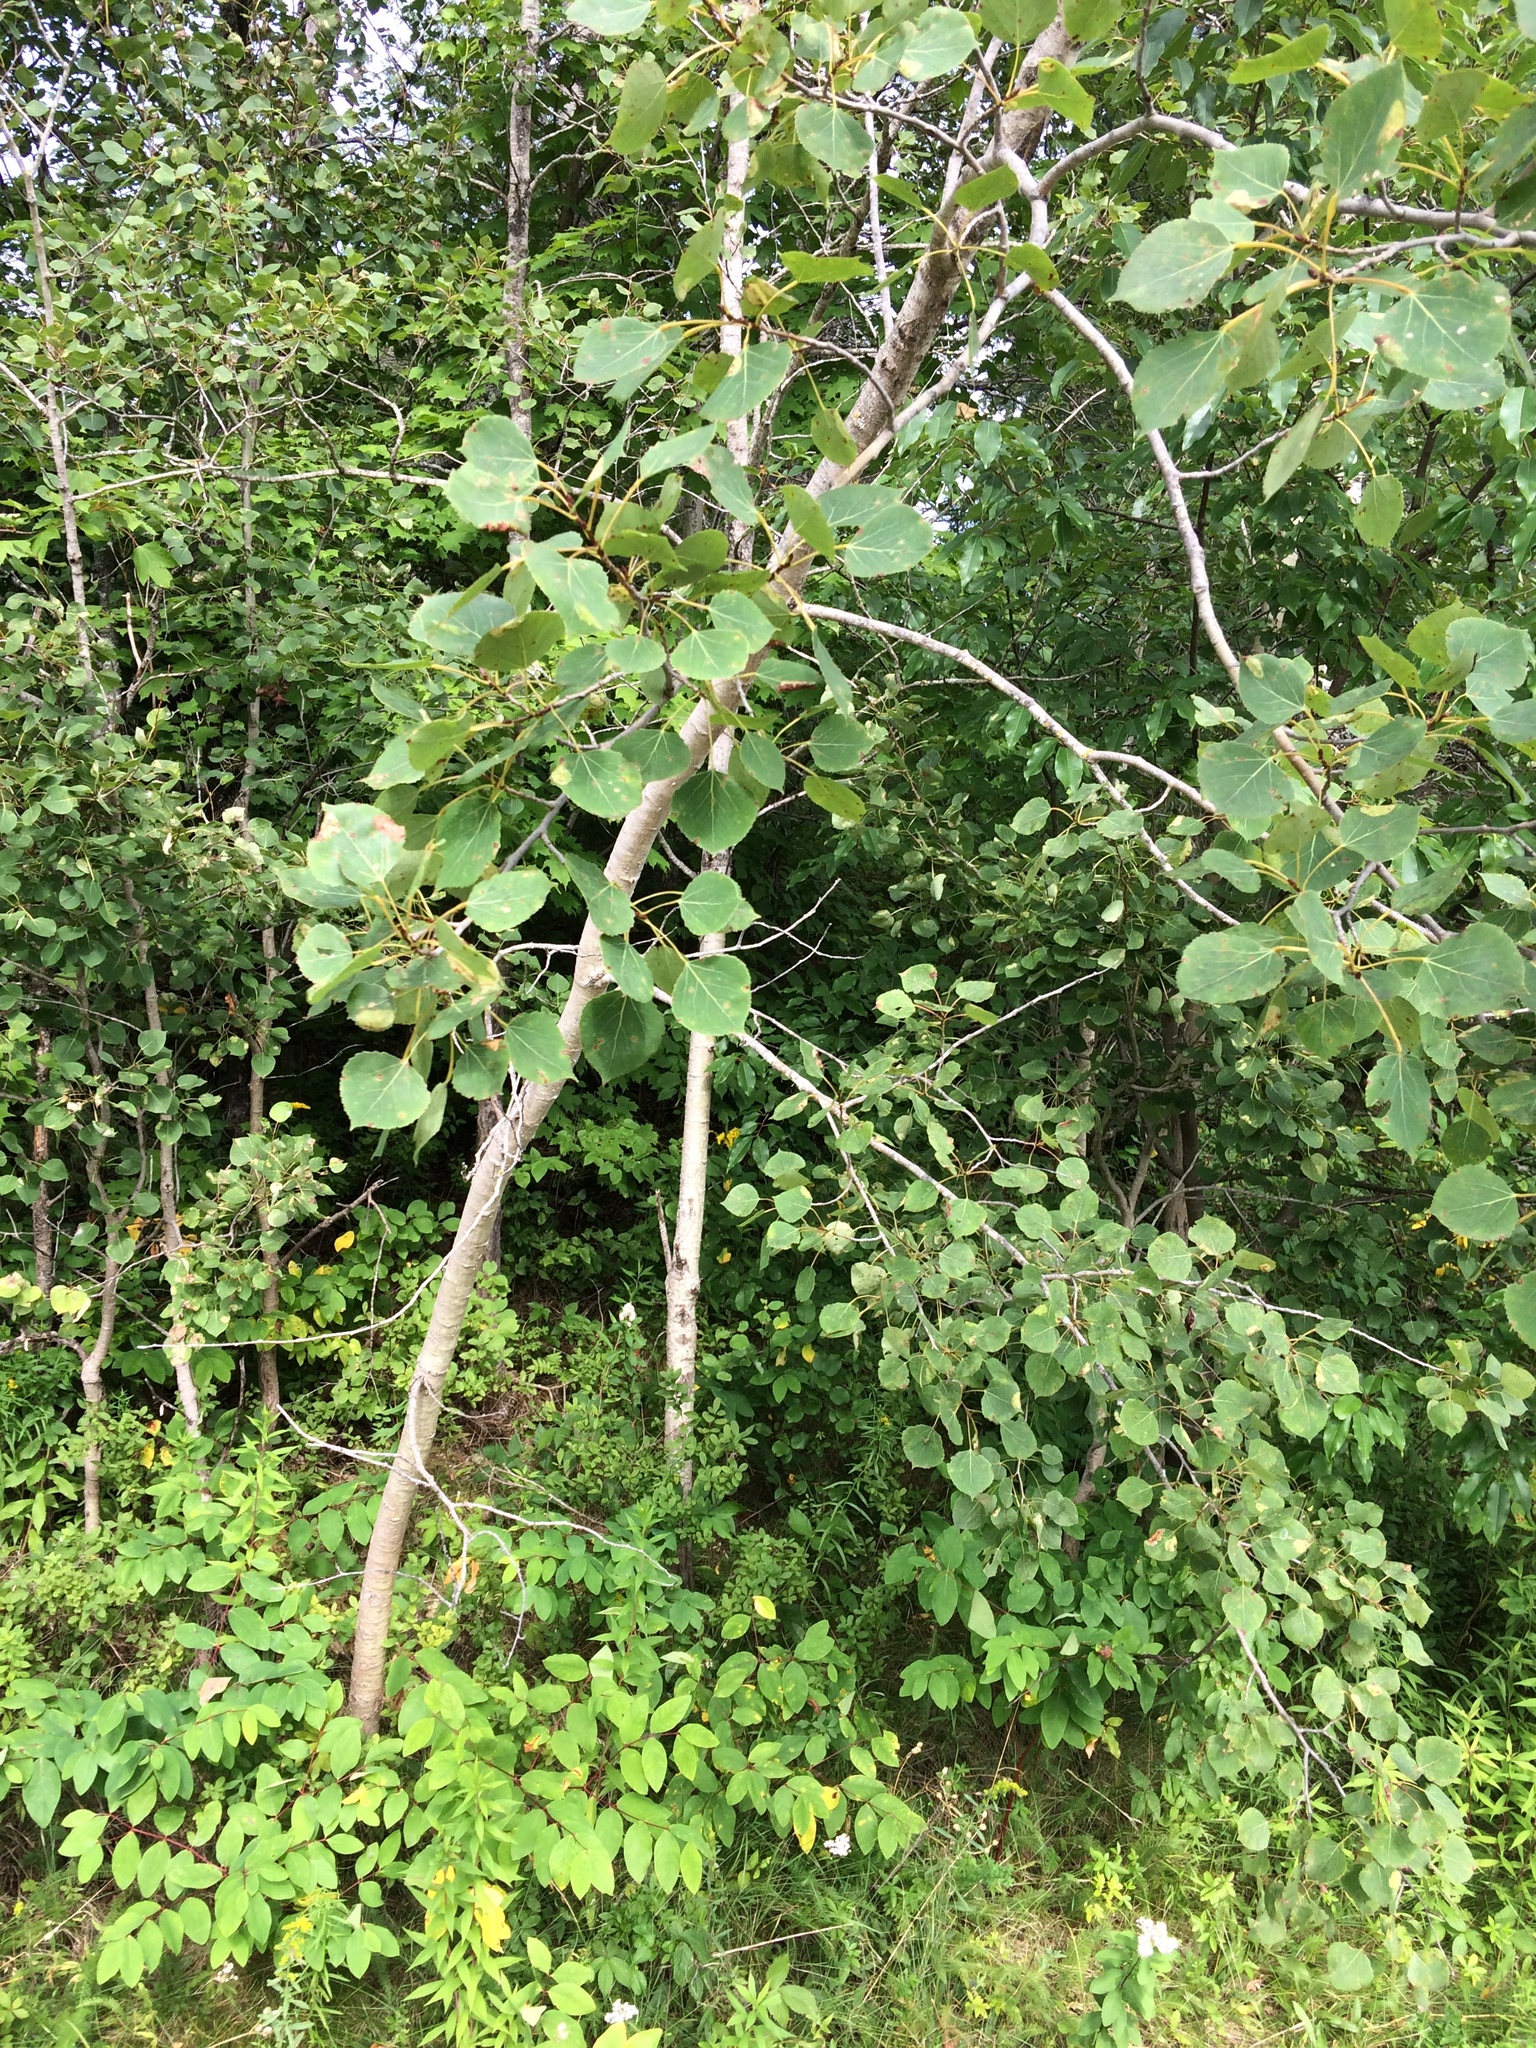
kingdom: Plantae
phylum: Tracheophyta
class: Magnoliopsida
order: Malpighiales
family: Salicaceae
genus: Populus
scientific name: Populus tremuloides
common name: Quaking aspen
